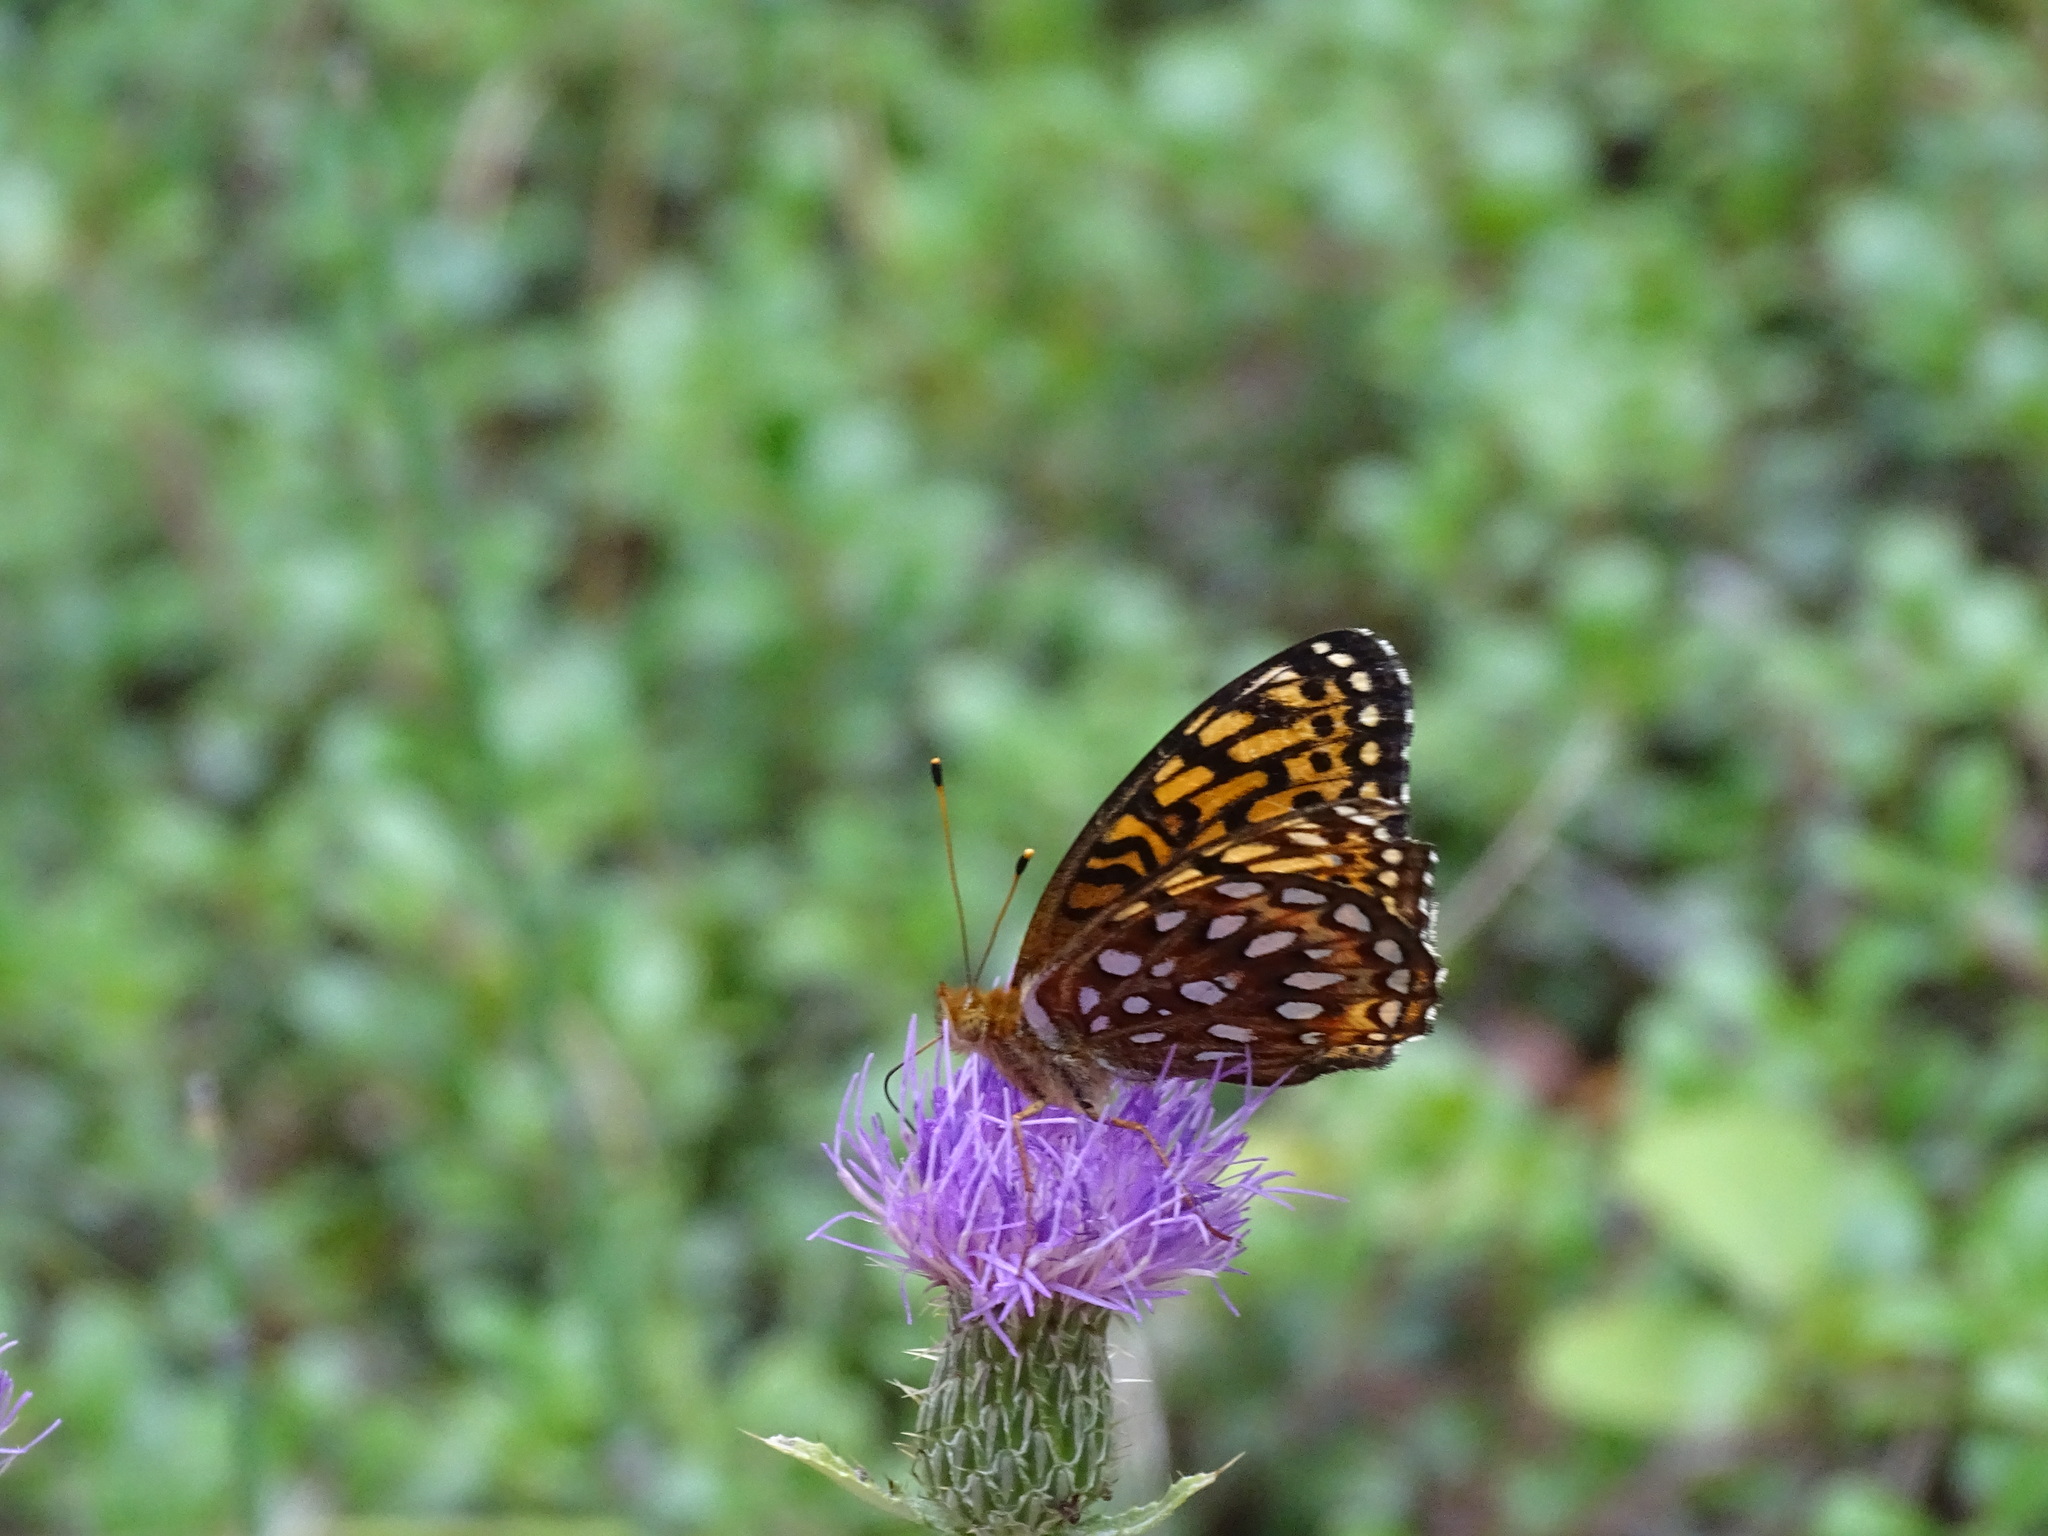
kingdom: Animalia
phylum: Arthropoda
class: Insecta
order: Lepidoptera
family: Nymphalidae
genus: Speyeria
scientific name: Speyeria aphrodite
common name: Aphrodite friitllary
